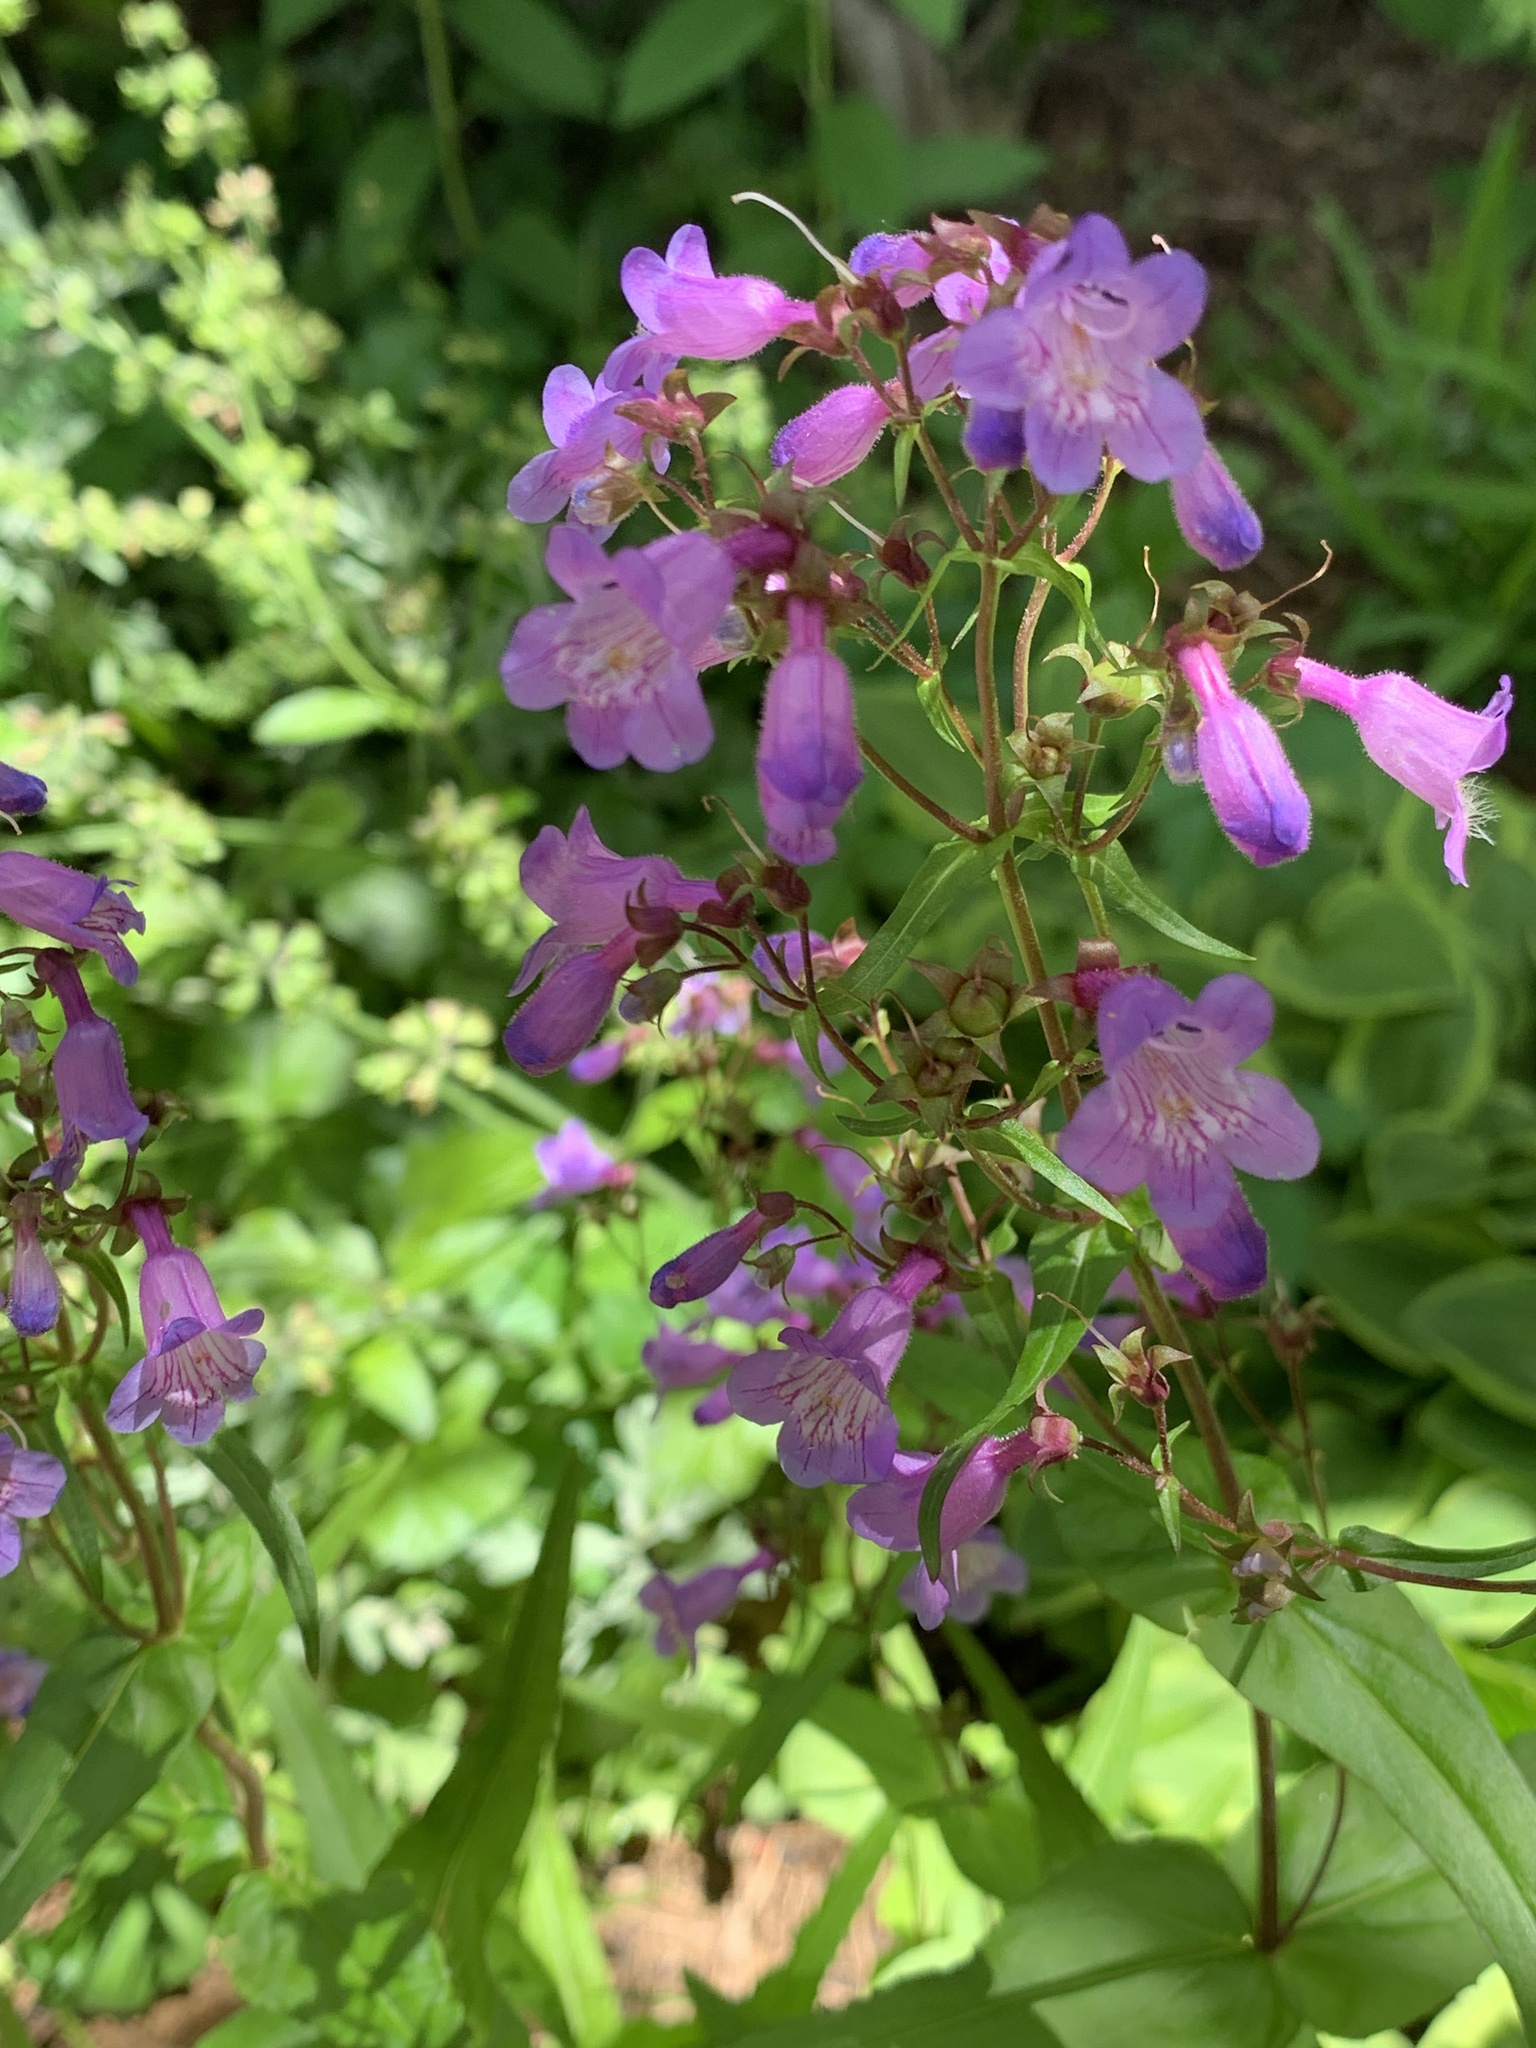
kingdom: Plantae
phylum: Tracheophyta
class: Magnoliopsida
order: Lamiales
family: Plantaginaceae
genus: Penstemon
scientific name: Penstemon tenuis
